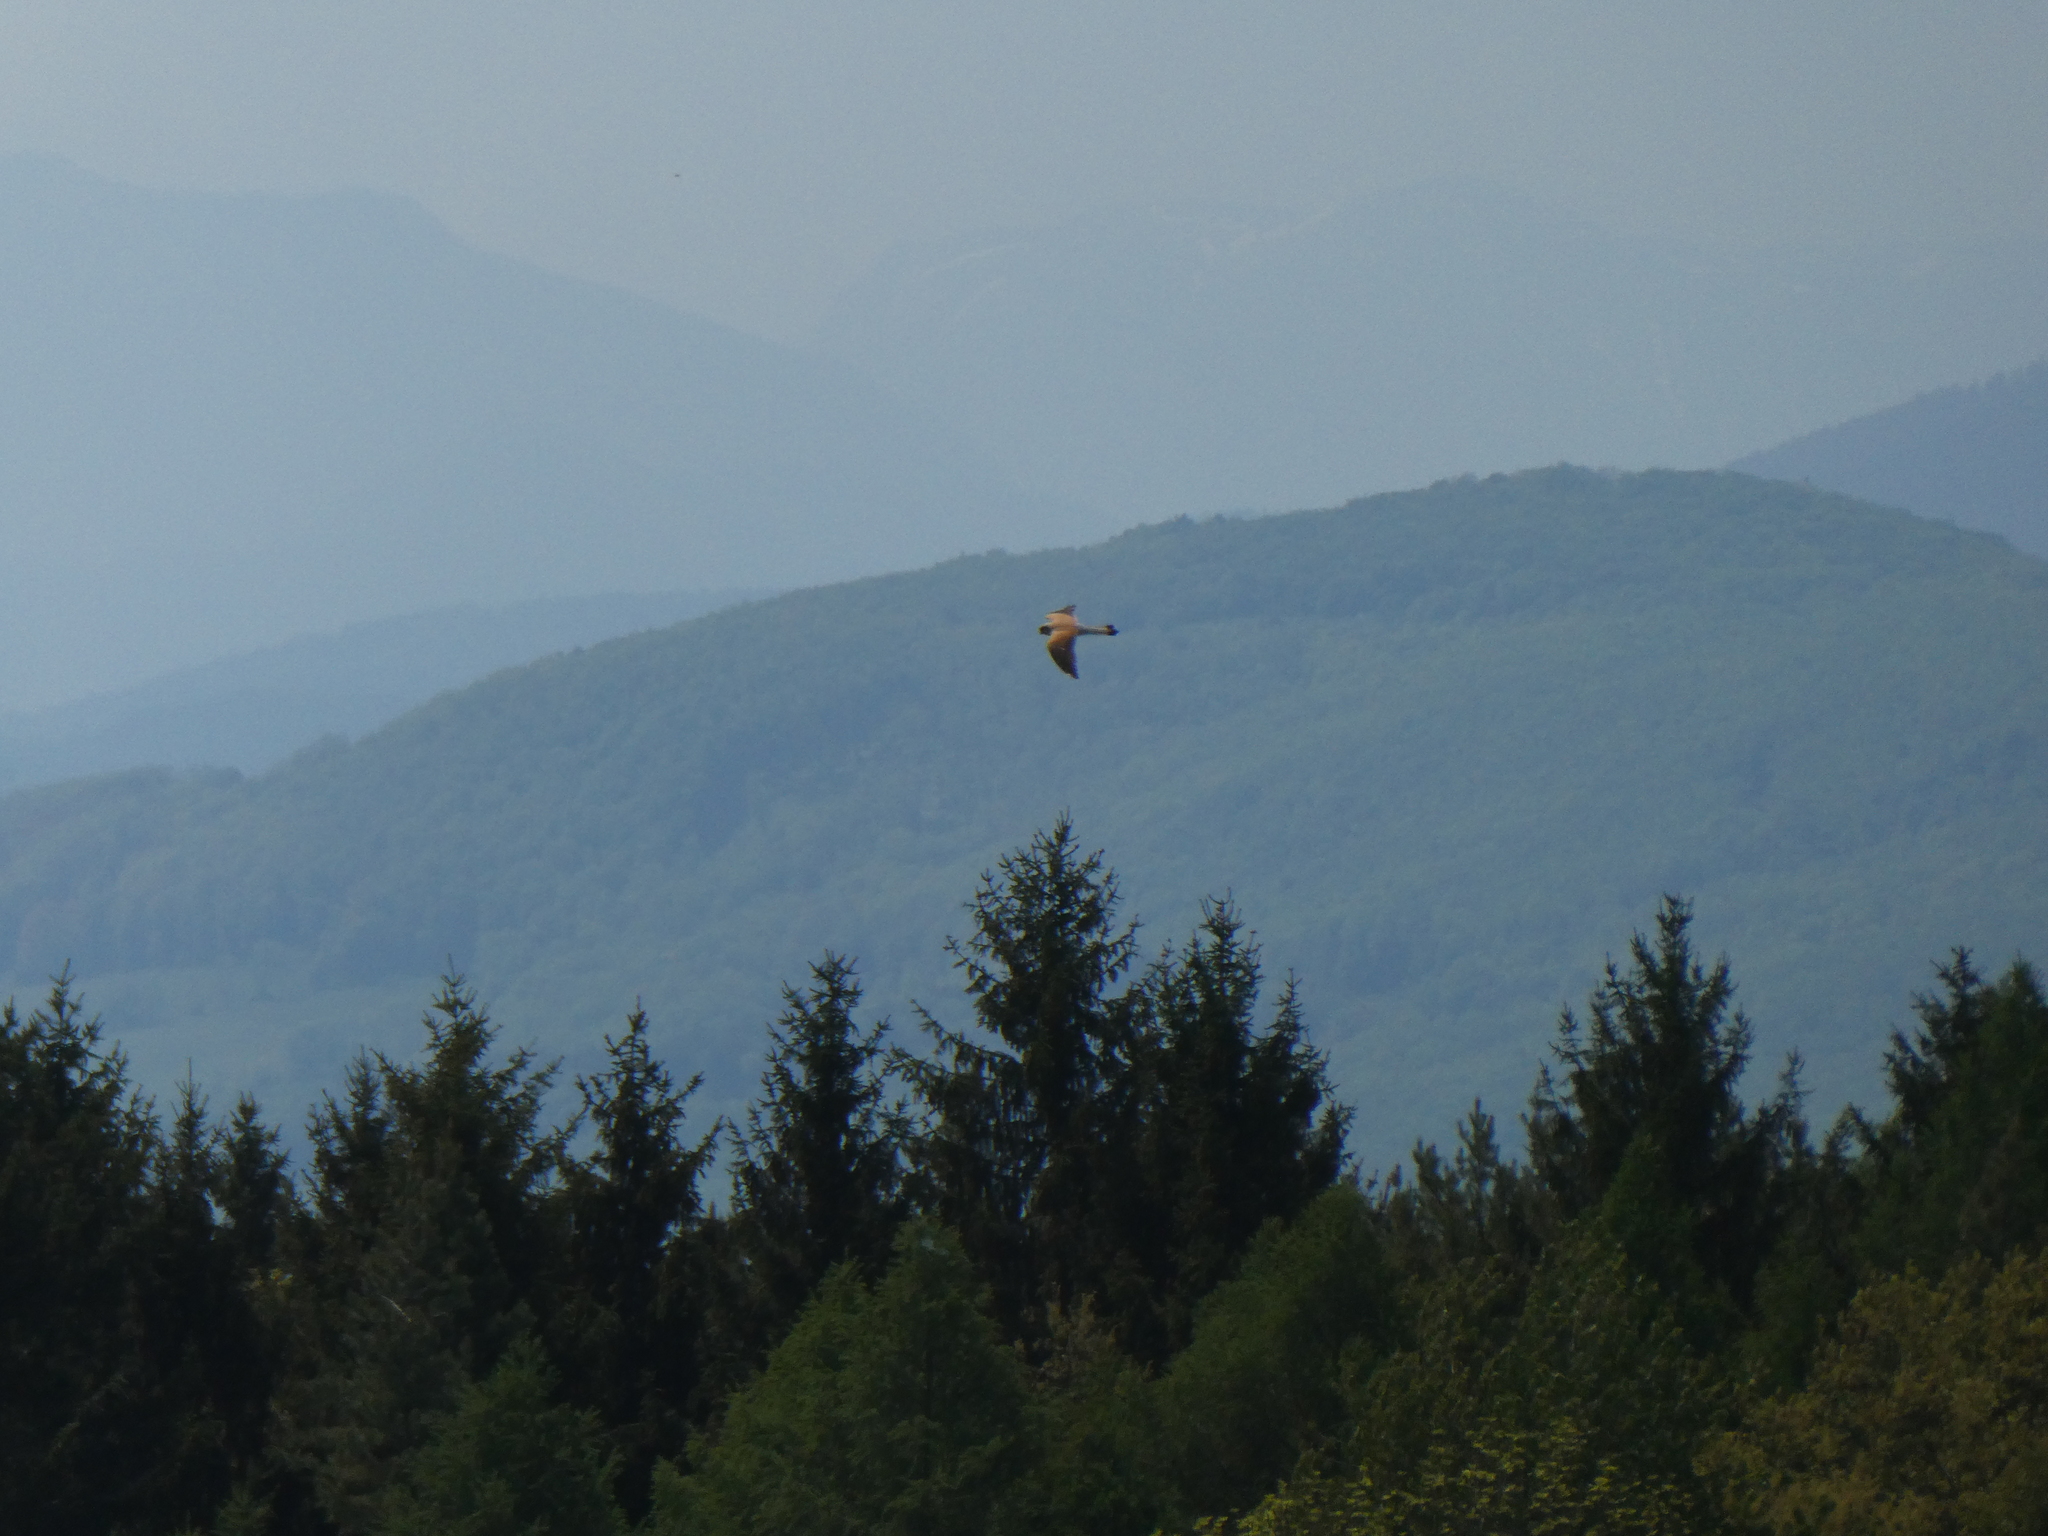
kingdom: Animalia
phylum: Chordata
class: Aves
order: Falconiformes
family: Falconidae
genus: Falco
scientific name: Falco tinnunculus
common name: Common kestrel
